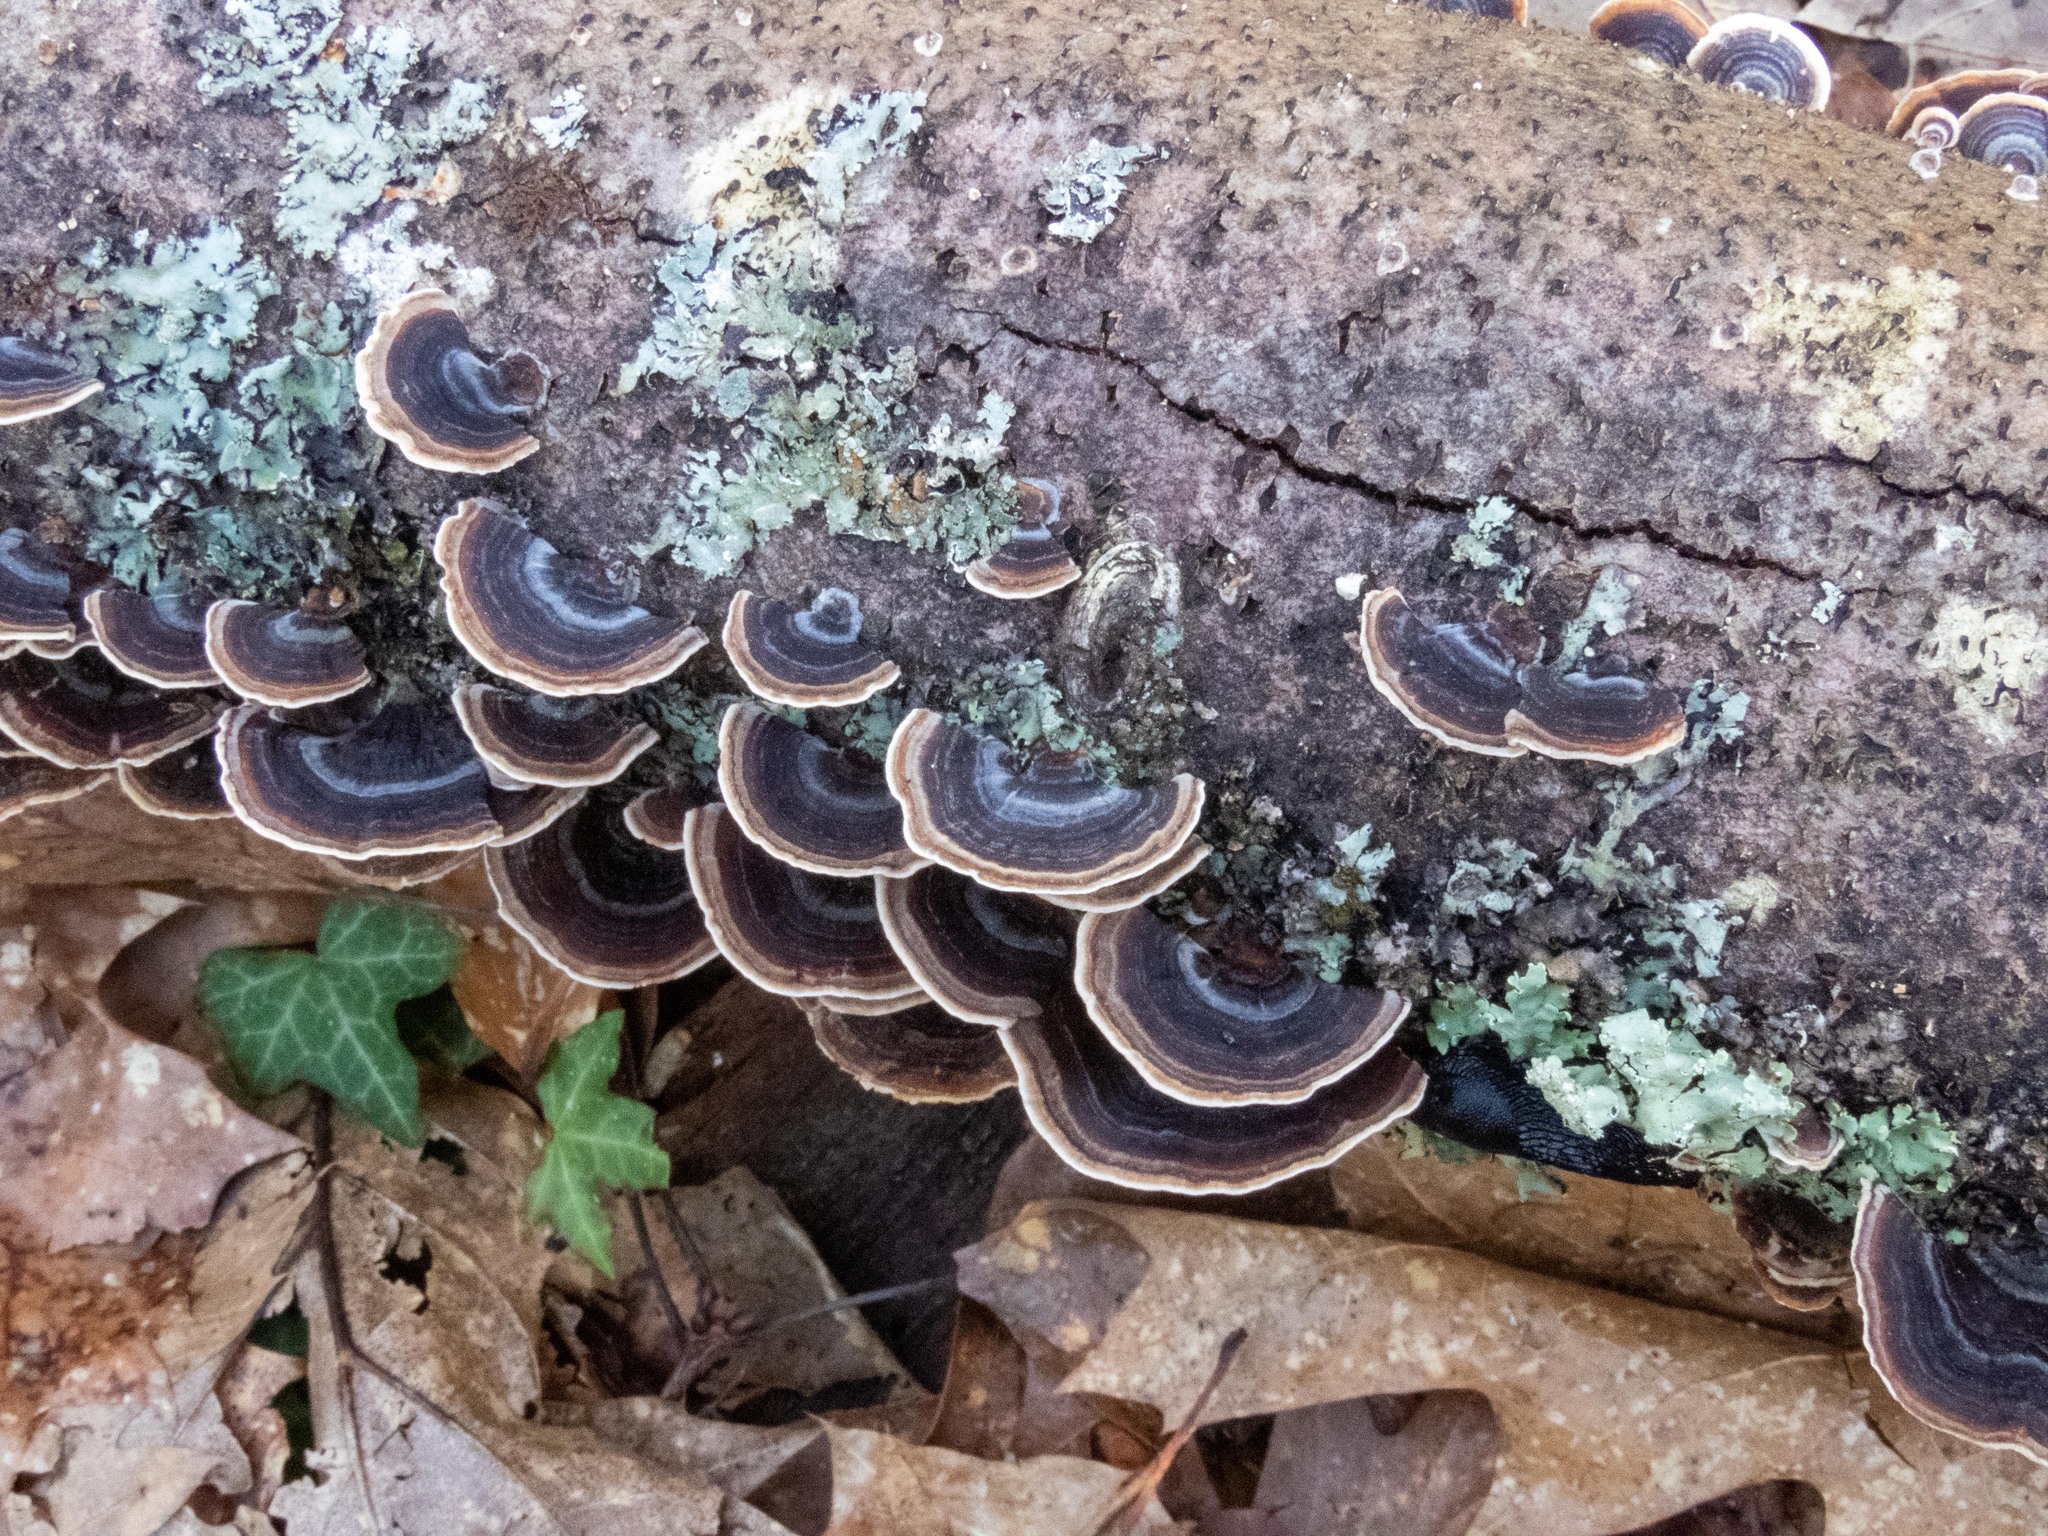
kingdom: Fungi
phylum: Basidiomycota
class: Agaricomycetes
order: Polyporales
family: Polyporaceae
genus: Trametes
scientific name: Trametes versicolor
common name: Turkeytail
